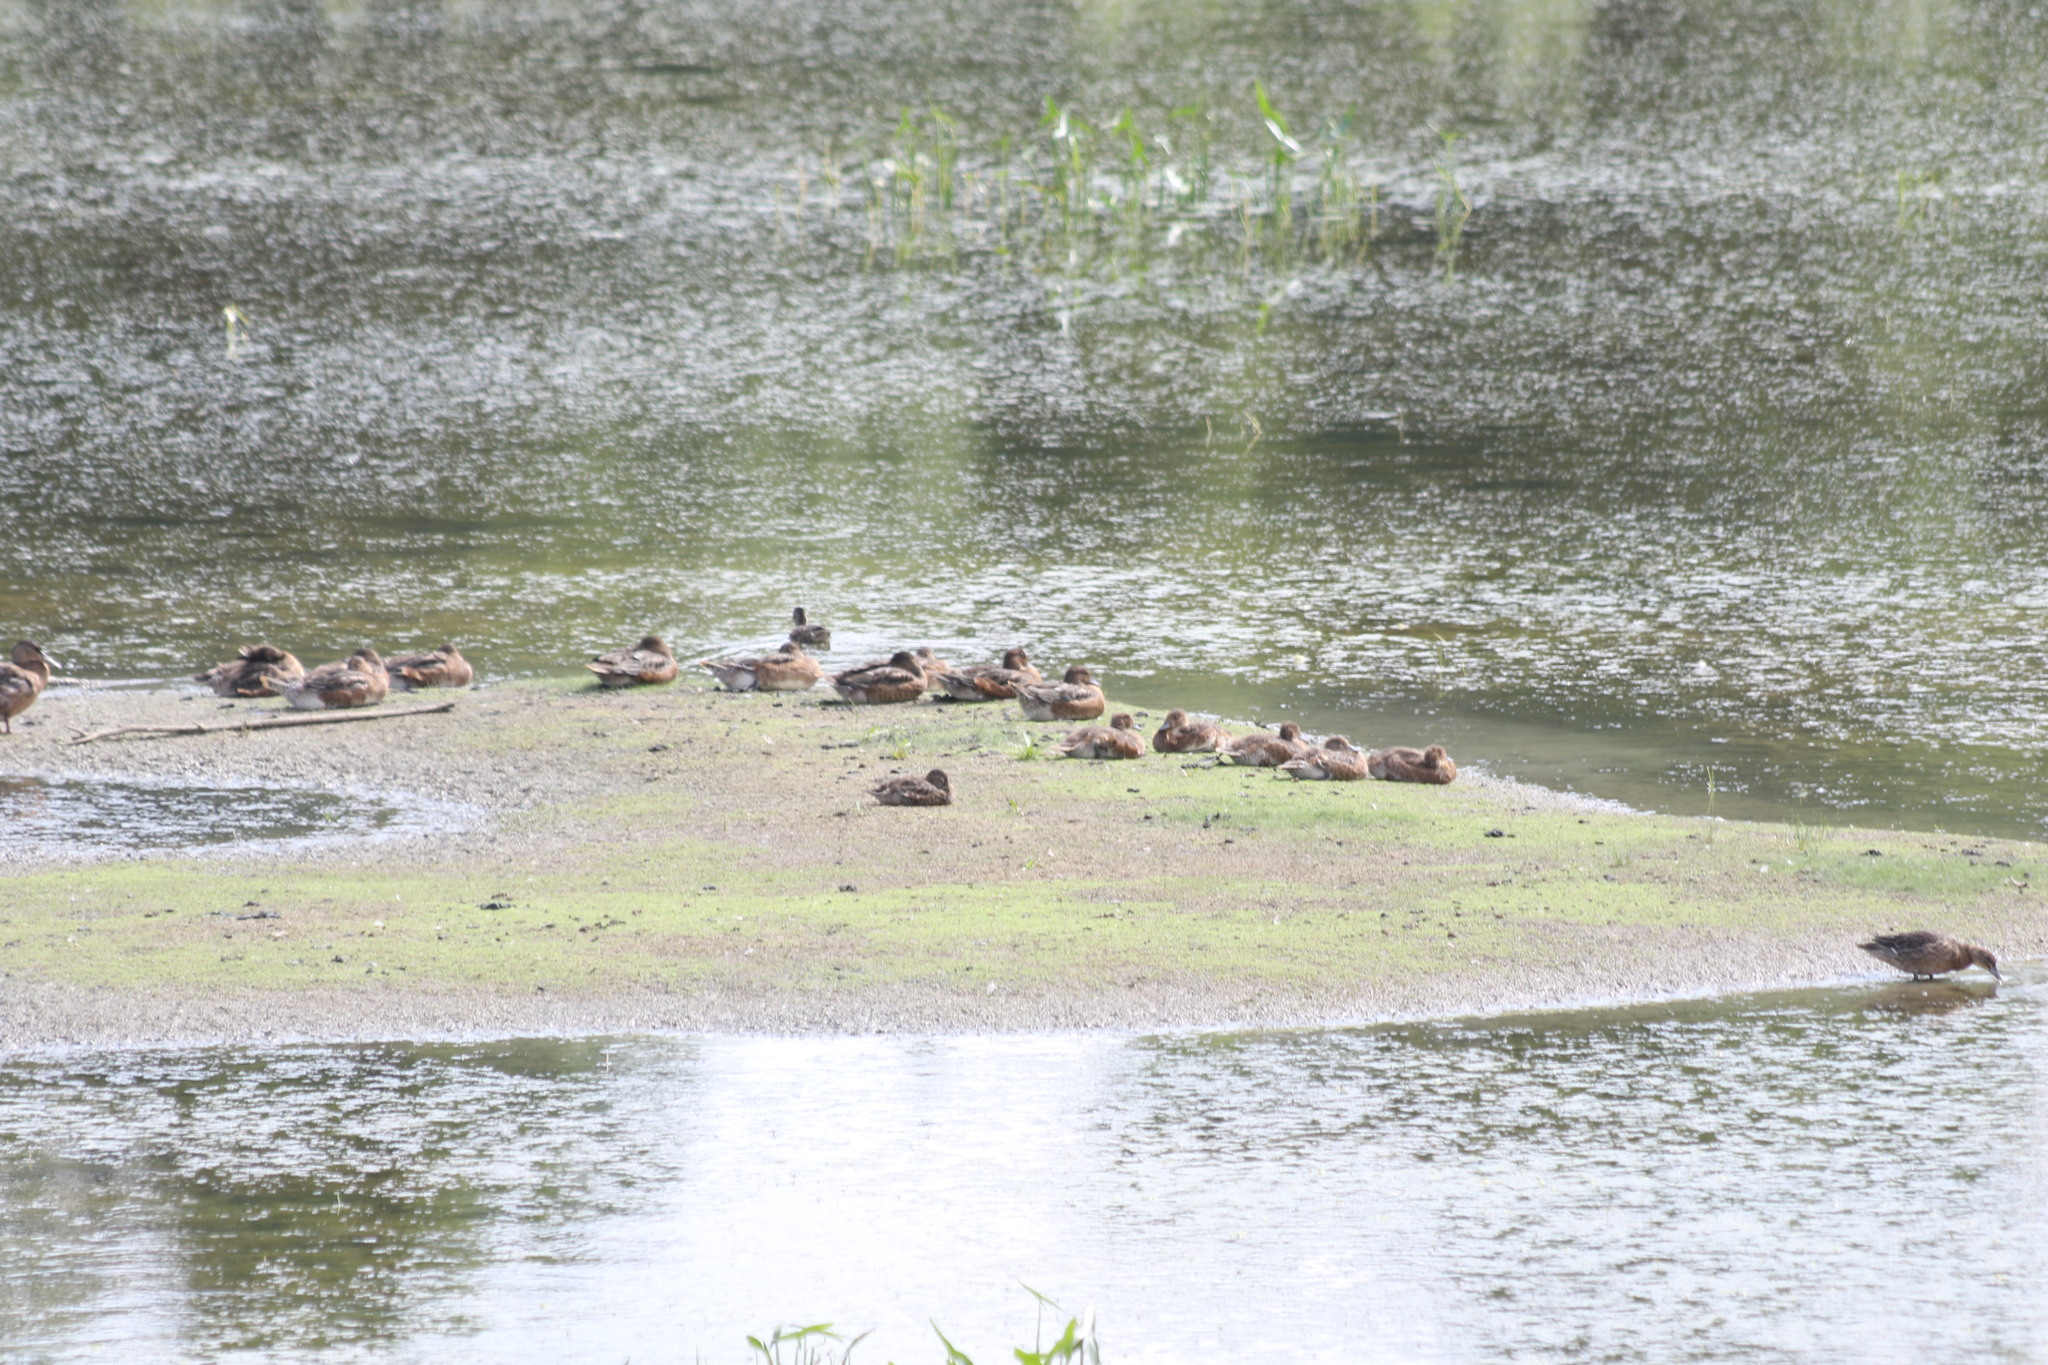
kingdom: Animalia
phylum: Chordata
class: Aves
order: Anseriformes
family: Anatidae
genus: Mareca
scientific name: Mareca penelope
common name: Eurasian wigeon
